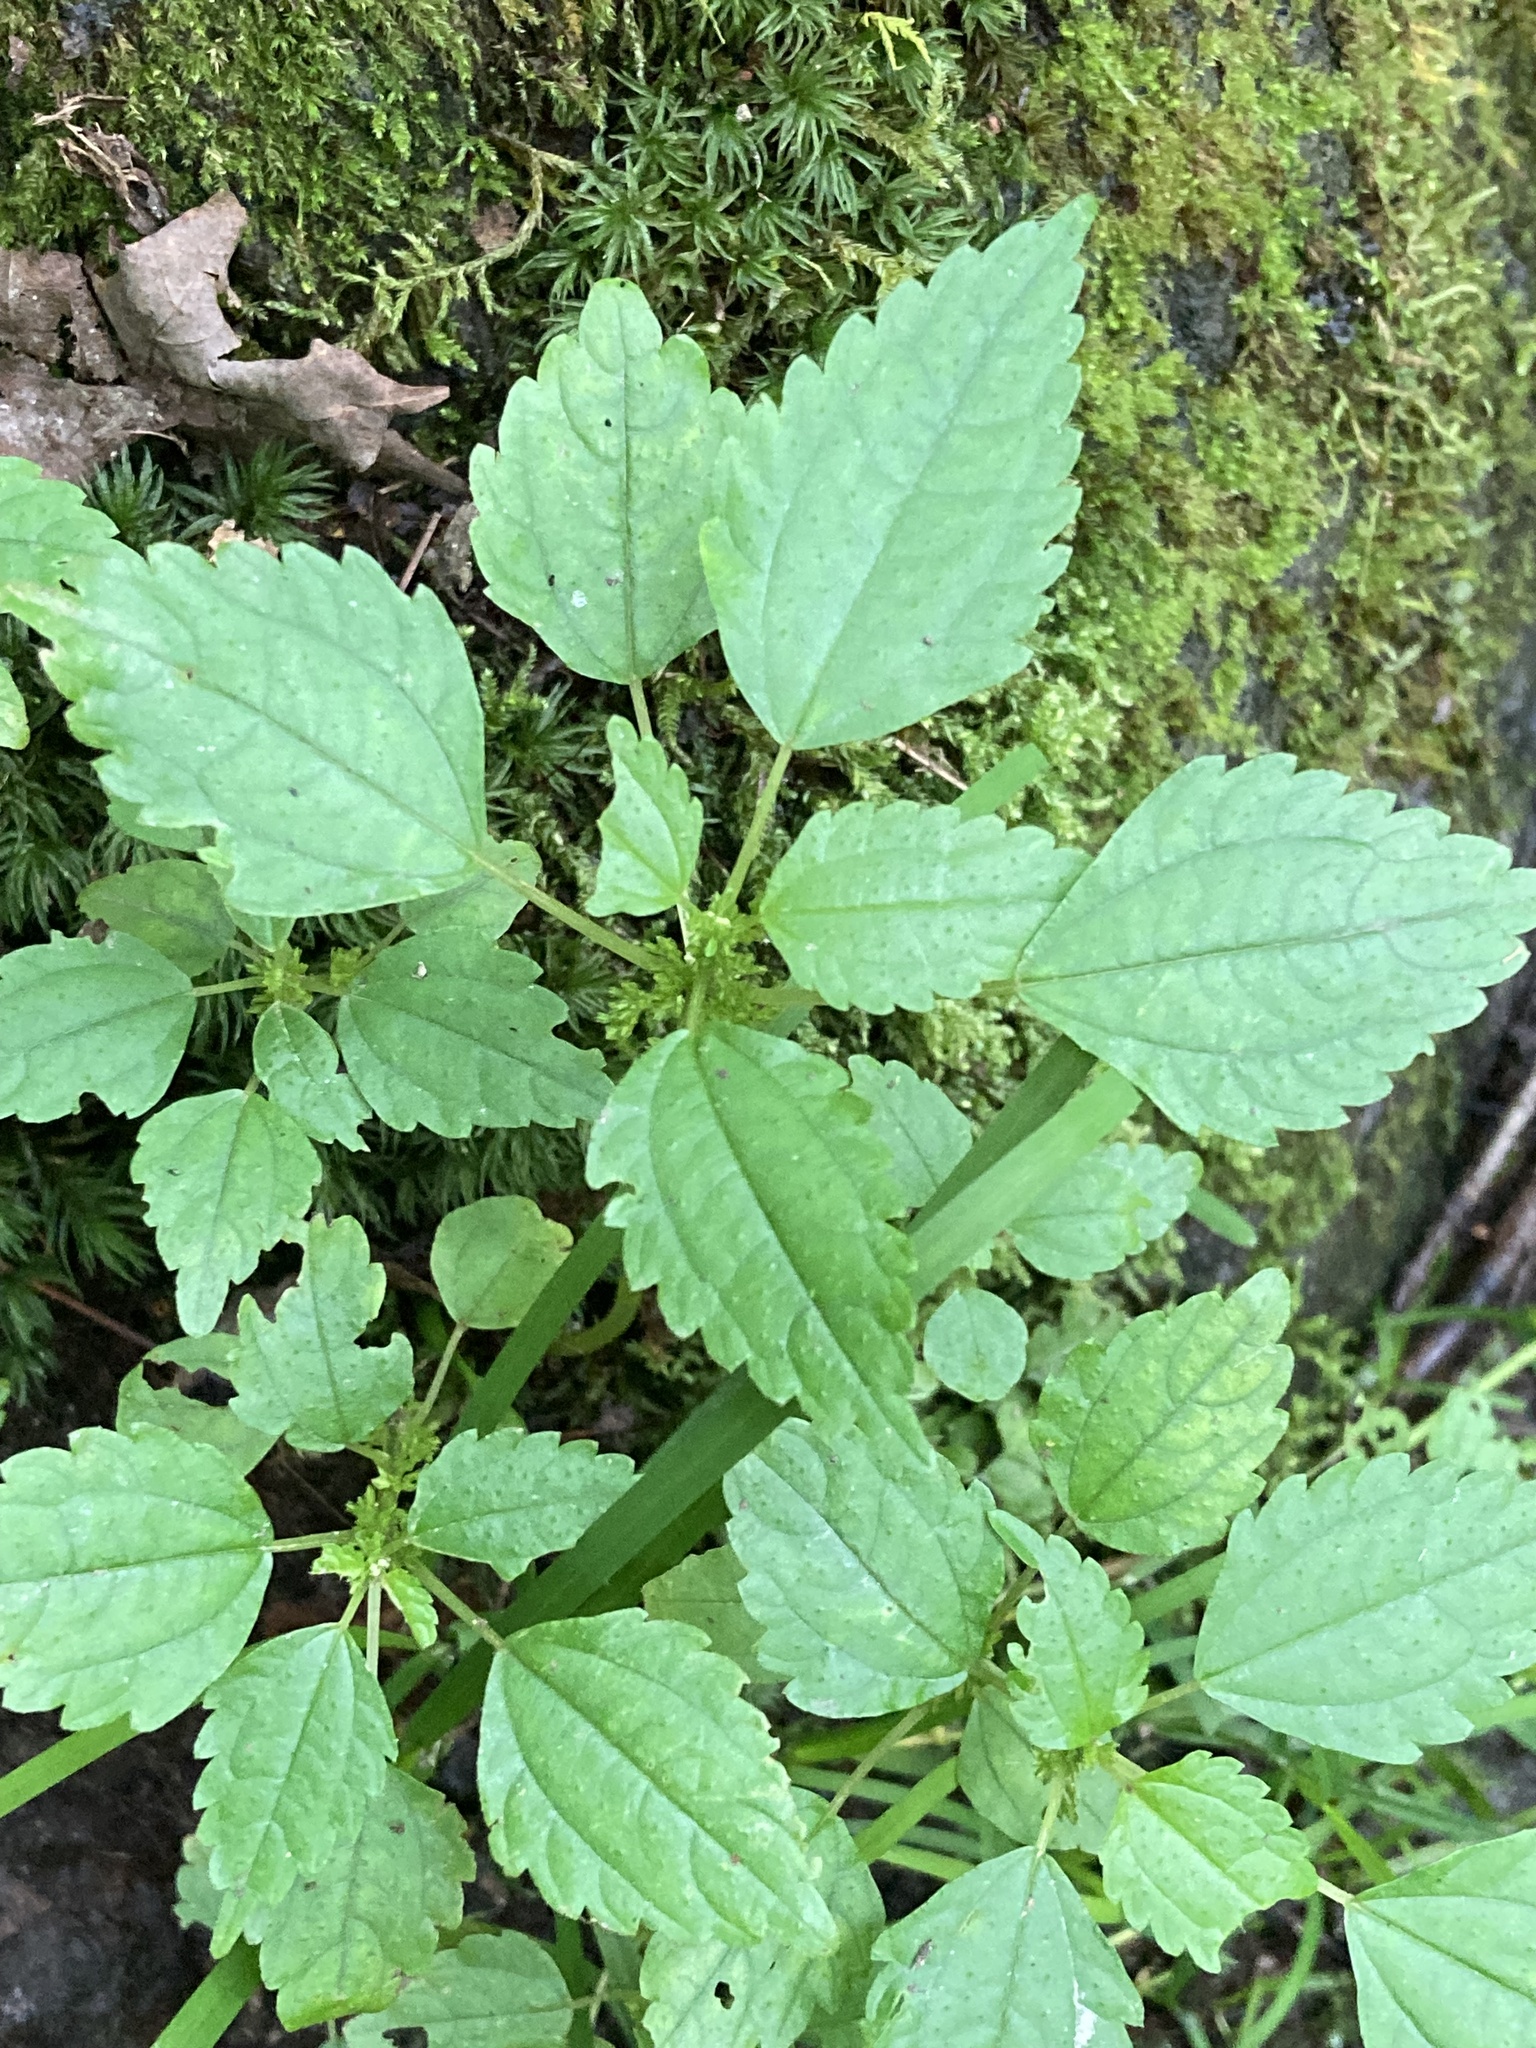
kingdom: Plantae
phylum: Tracheophyta
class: Magnoliopsida
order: Rosales
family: Urticaceae
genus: Pilea
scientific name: Pilea pumila
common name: Clearweed
